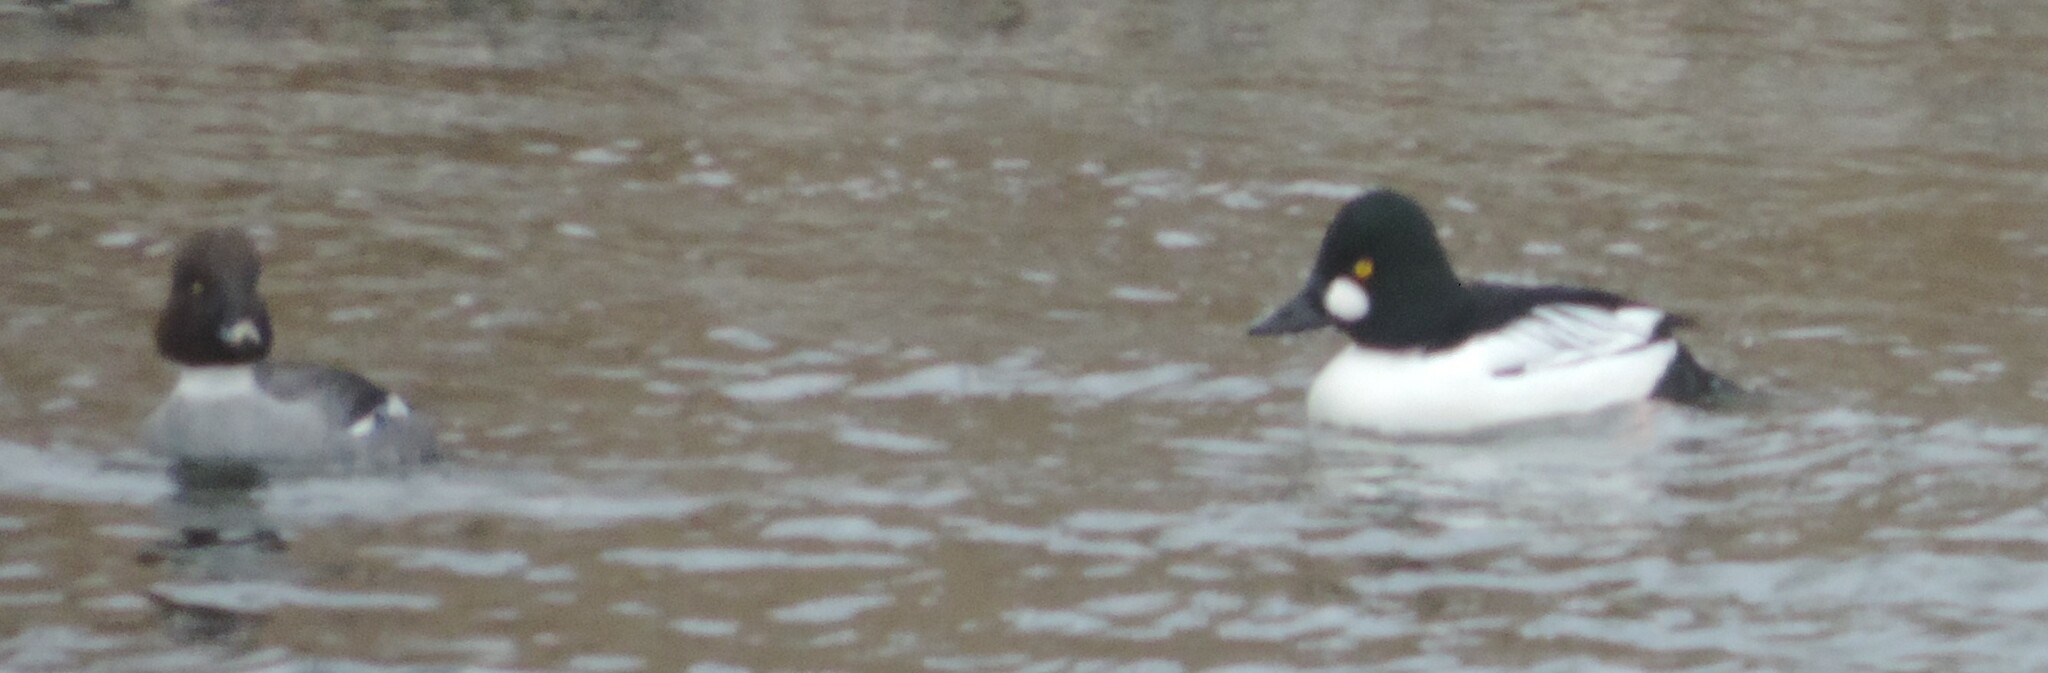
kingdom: Animalia
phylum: Chordata
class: Aves
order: Anseriformes
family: Anatidae
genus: Bucephala
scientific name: Bucephala clangula
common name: Common goldeneye
